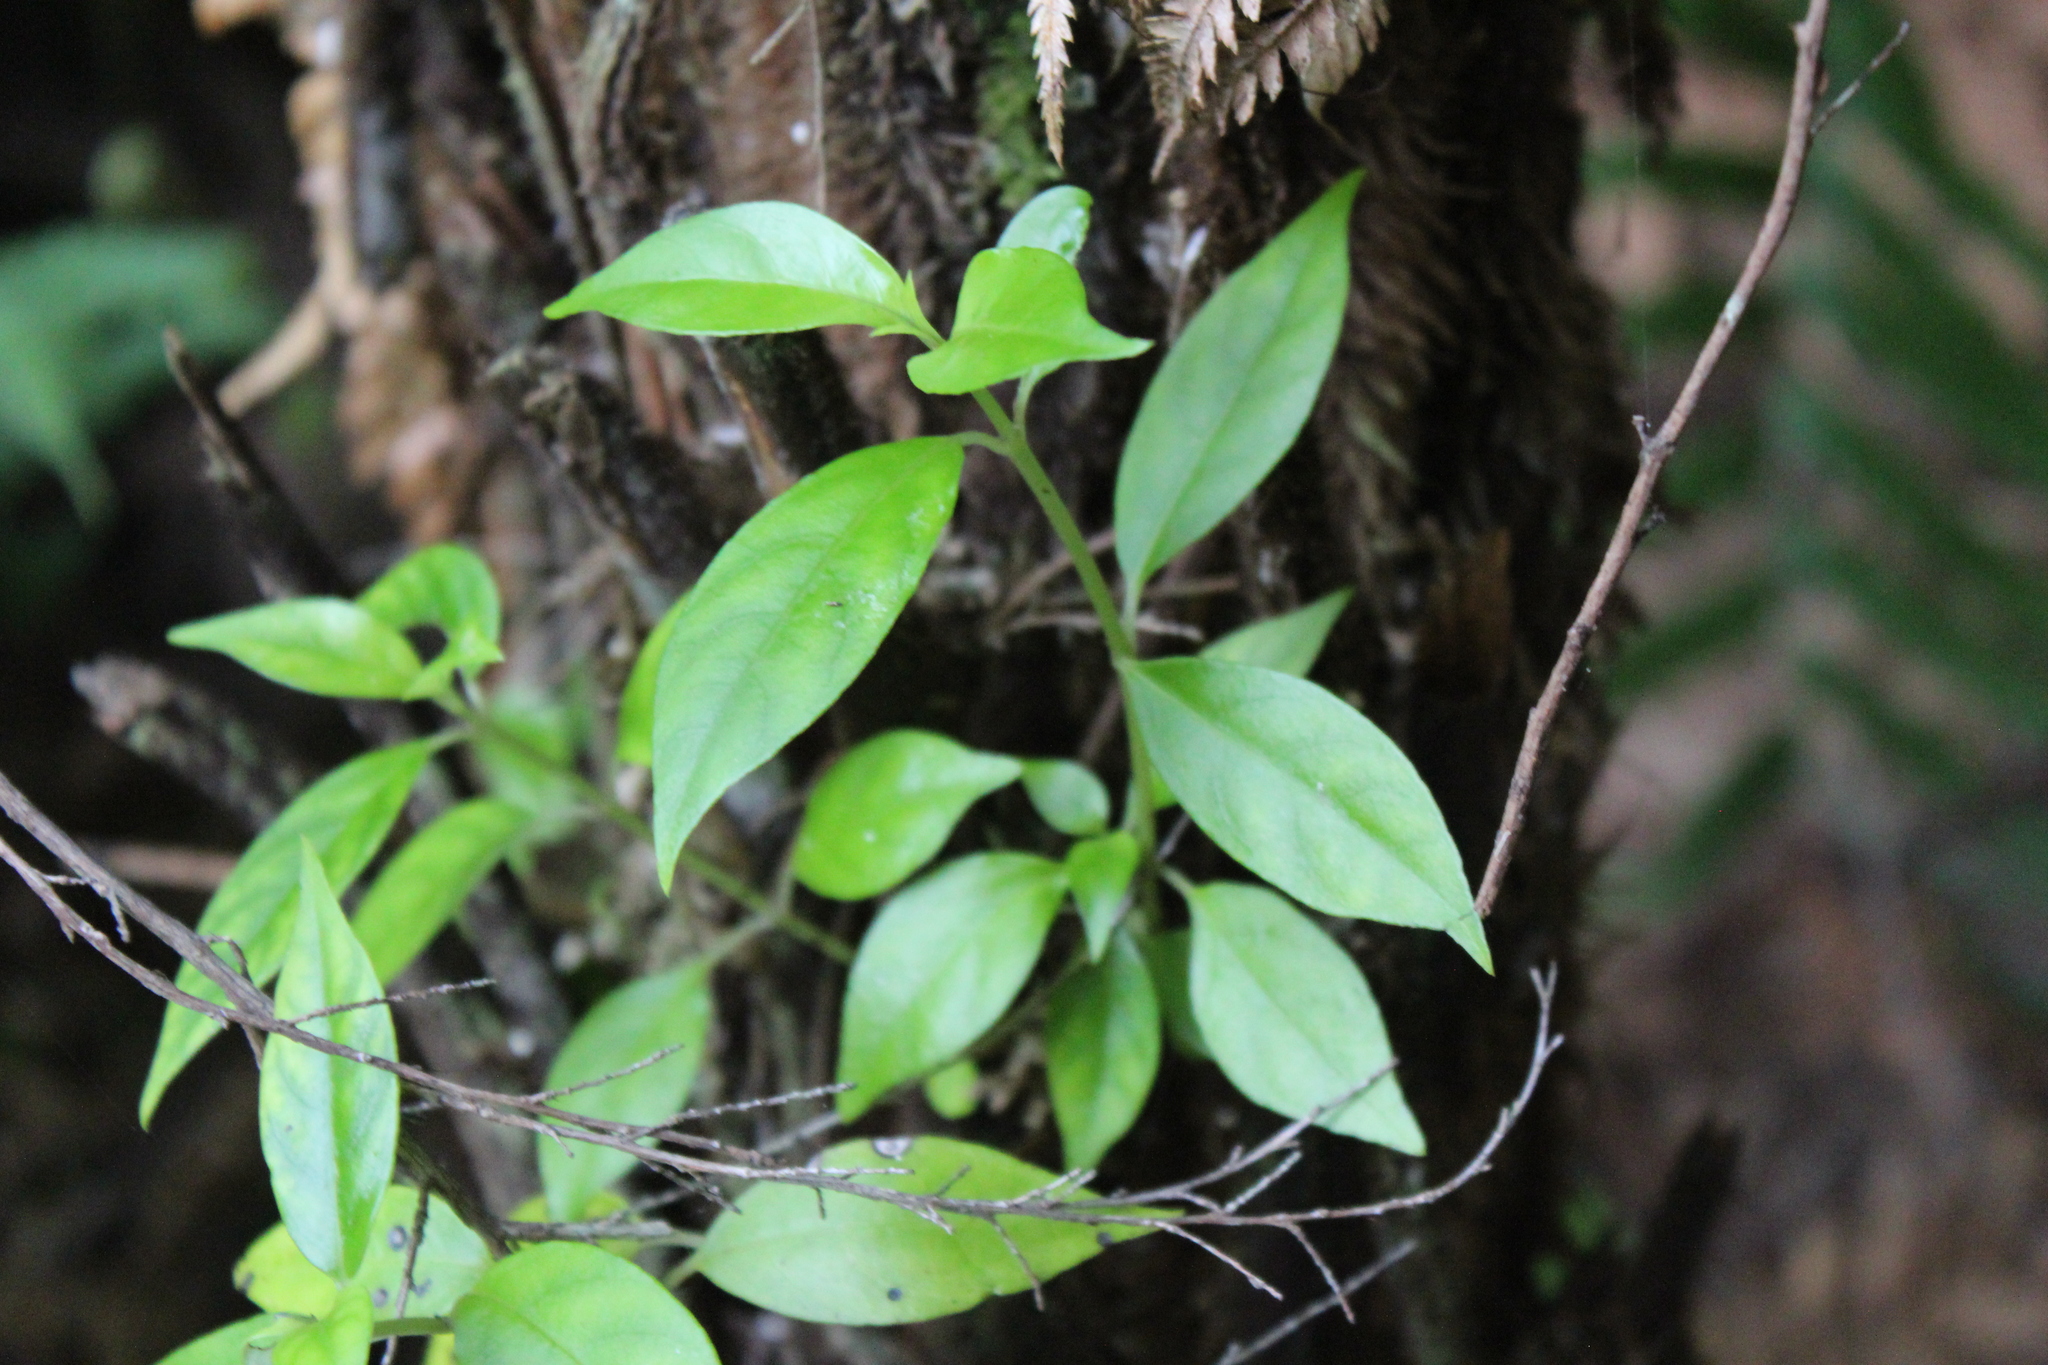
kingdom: Plantae
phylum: Tracheophyta
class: Magnoliopsida
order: Gentianales
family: Loganiaceae
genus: Geniostoma
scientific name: Geniostoma ligustrifolium
